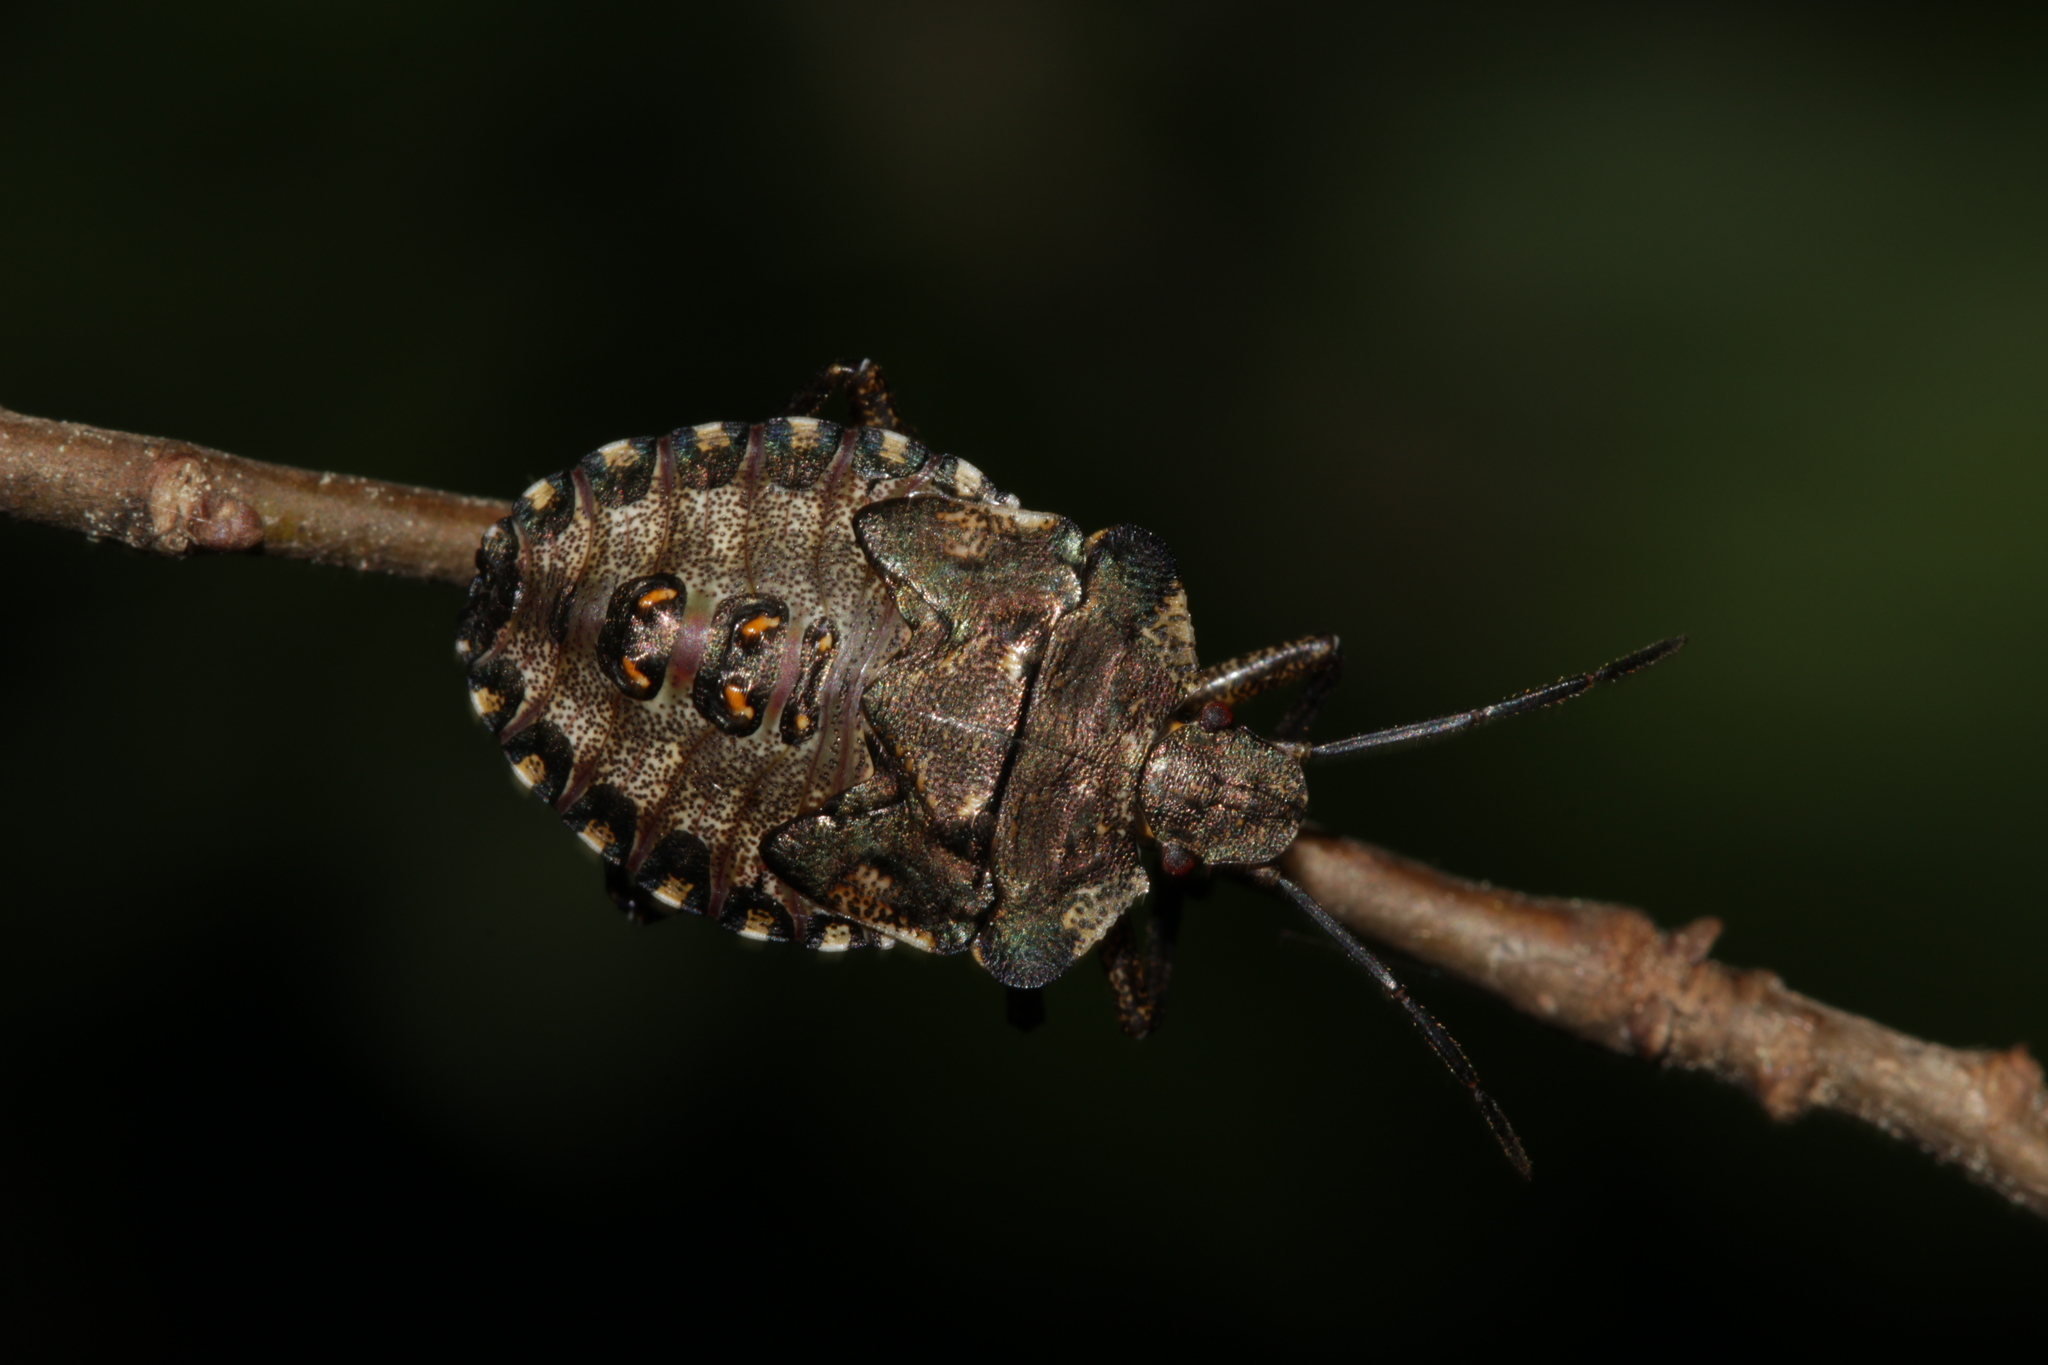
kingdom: Animalia
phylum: Arthropoda
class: Insecta
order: Hemiptera
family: Pentatomidae
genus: Pentatoma
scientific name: Pentatoma rufipes
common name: Forest bug
